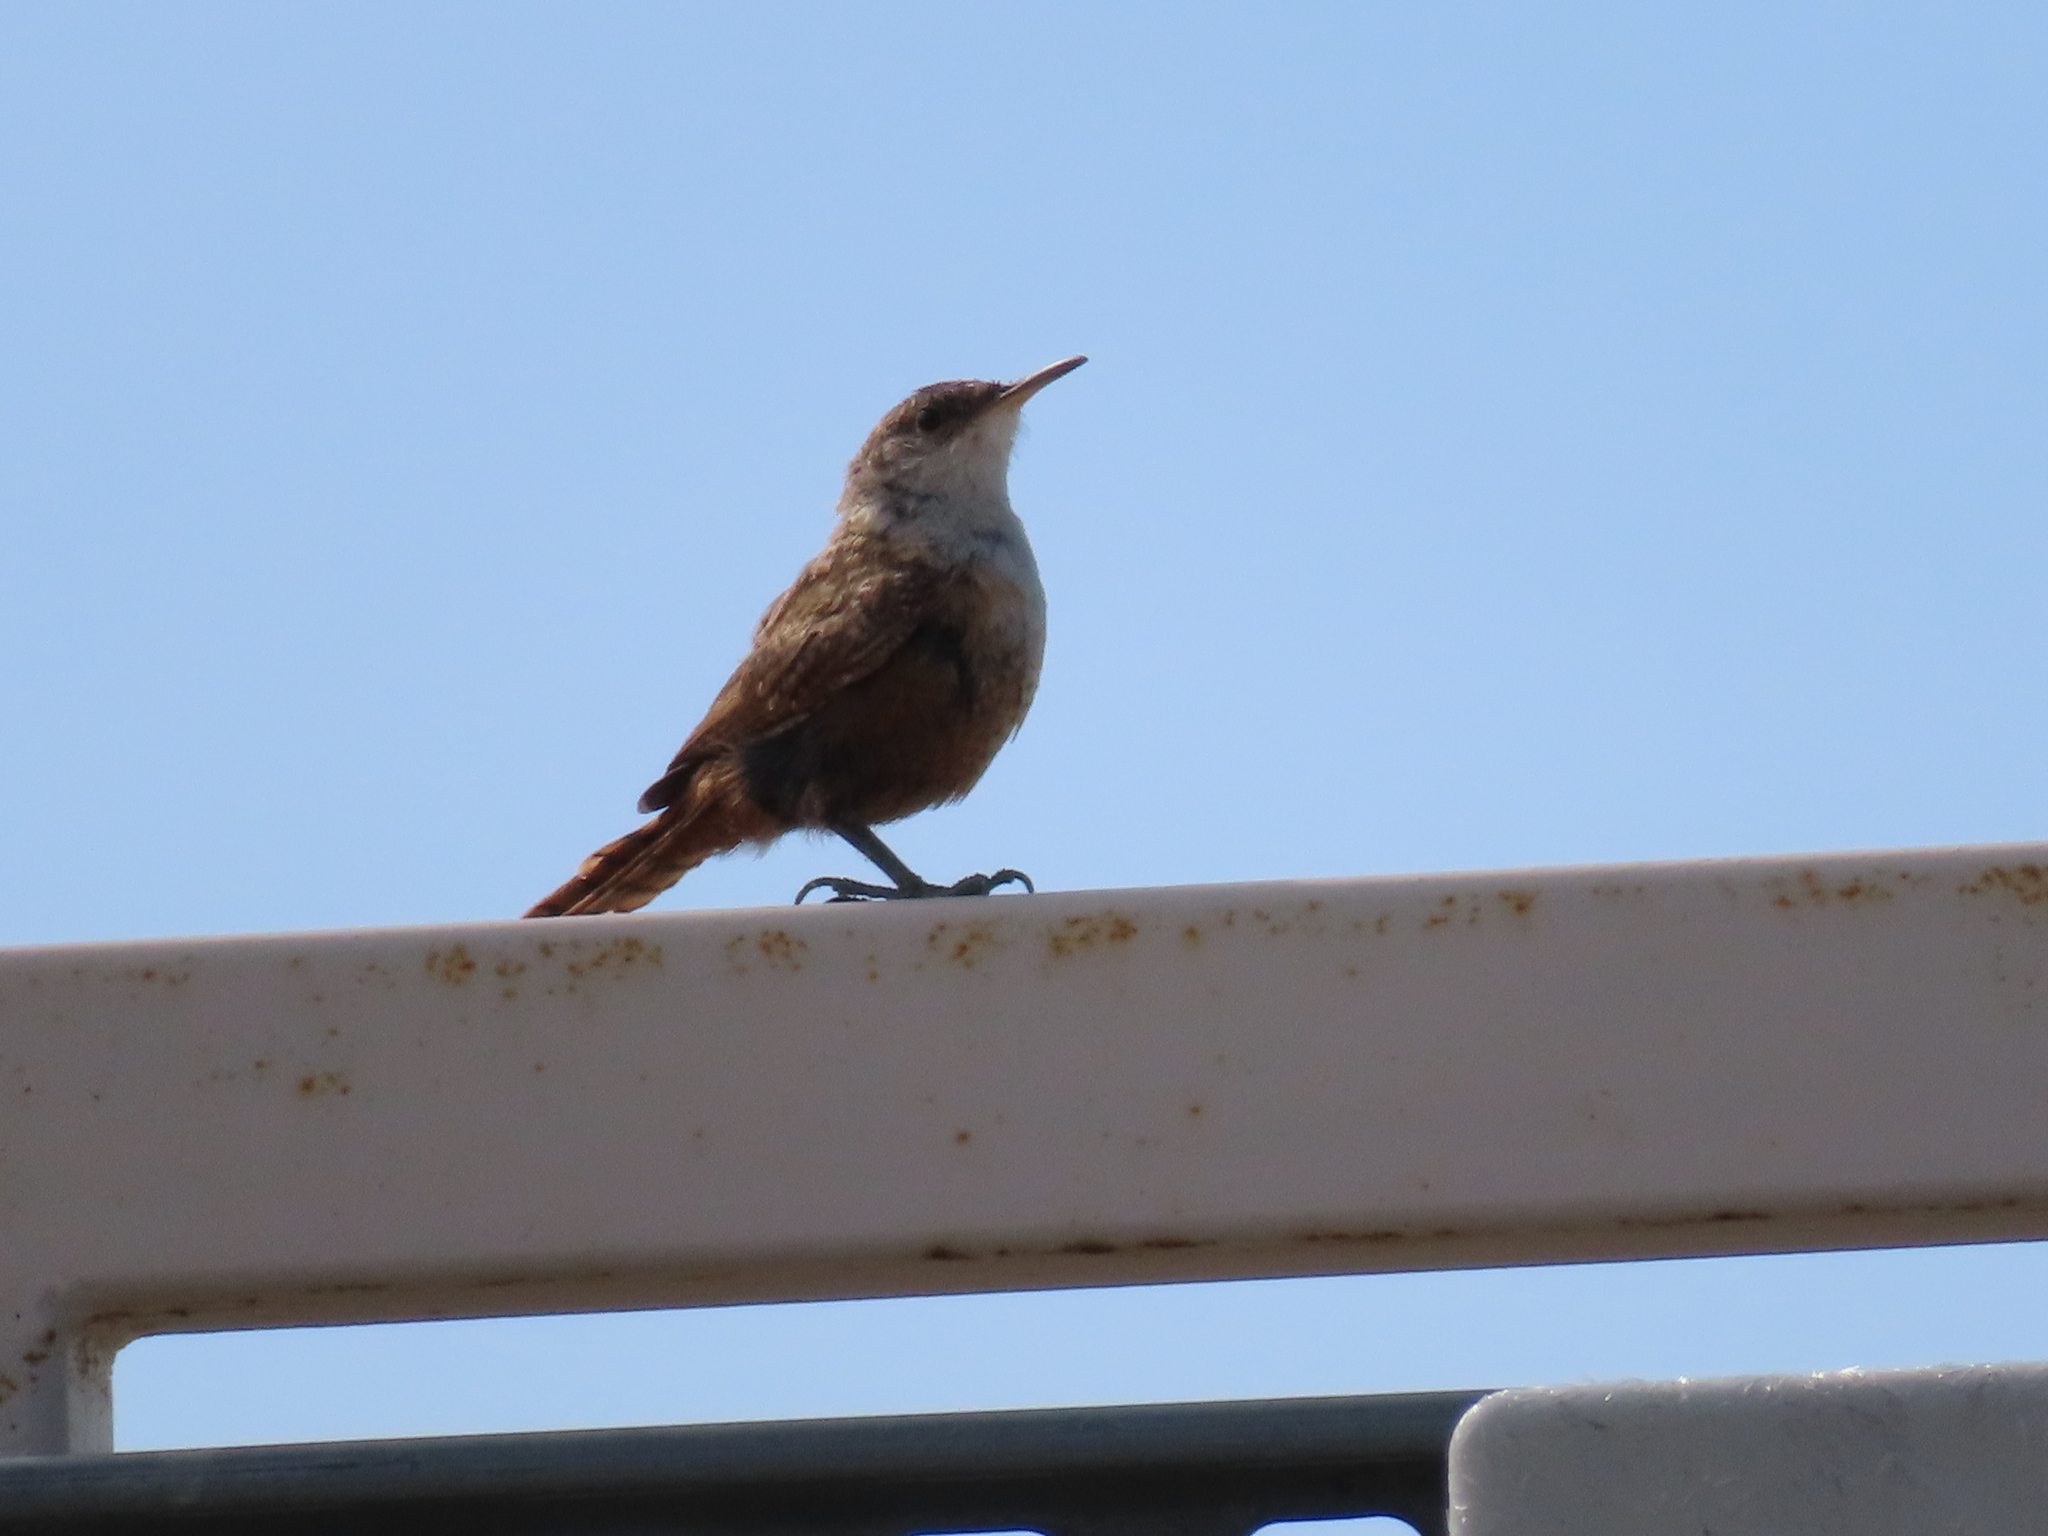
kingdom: Animalia
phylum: Chordata
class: Aves
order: Passeriformes
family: Troglodytidae
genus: Catherpes
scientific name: Catherpes mexicanus
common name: Canyon wren
